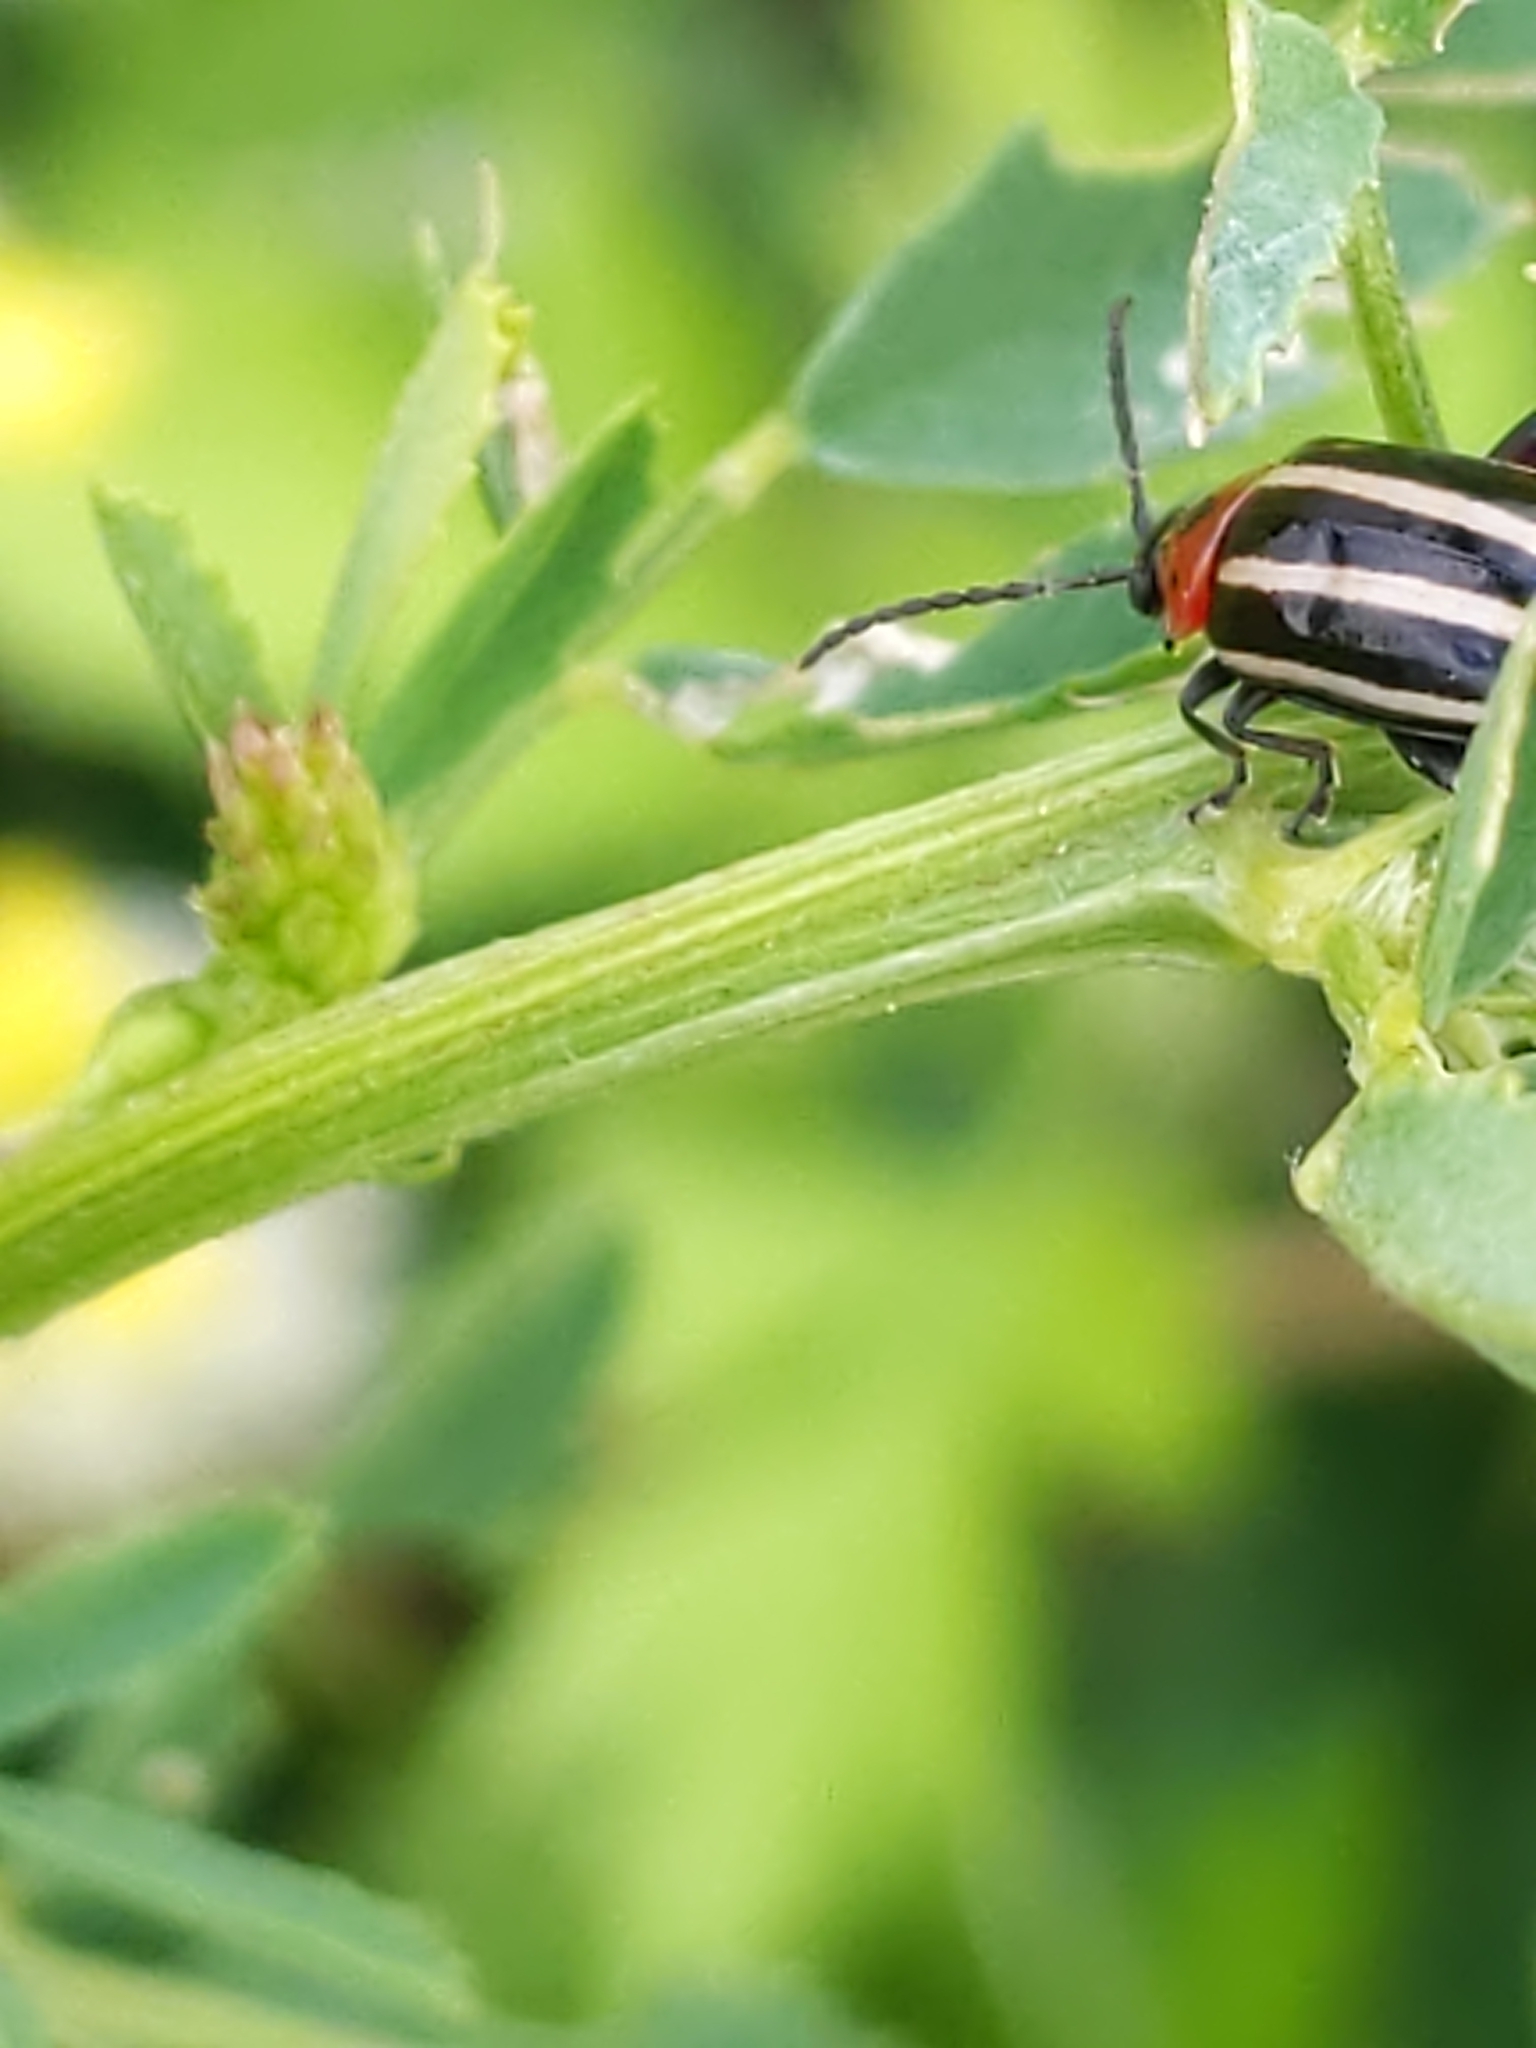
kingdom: Animalia
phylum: Arthropoda
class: Insecta
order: Coleoptera
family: Chrysomelidae
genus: Disonycha
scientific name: Disonycha glabrata
